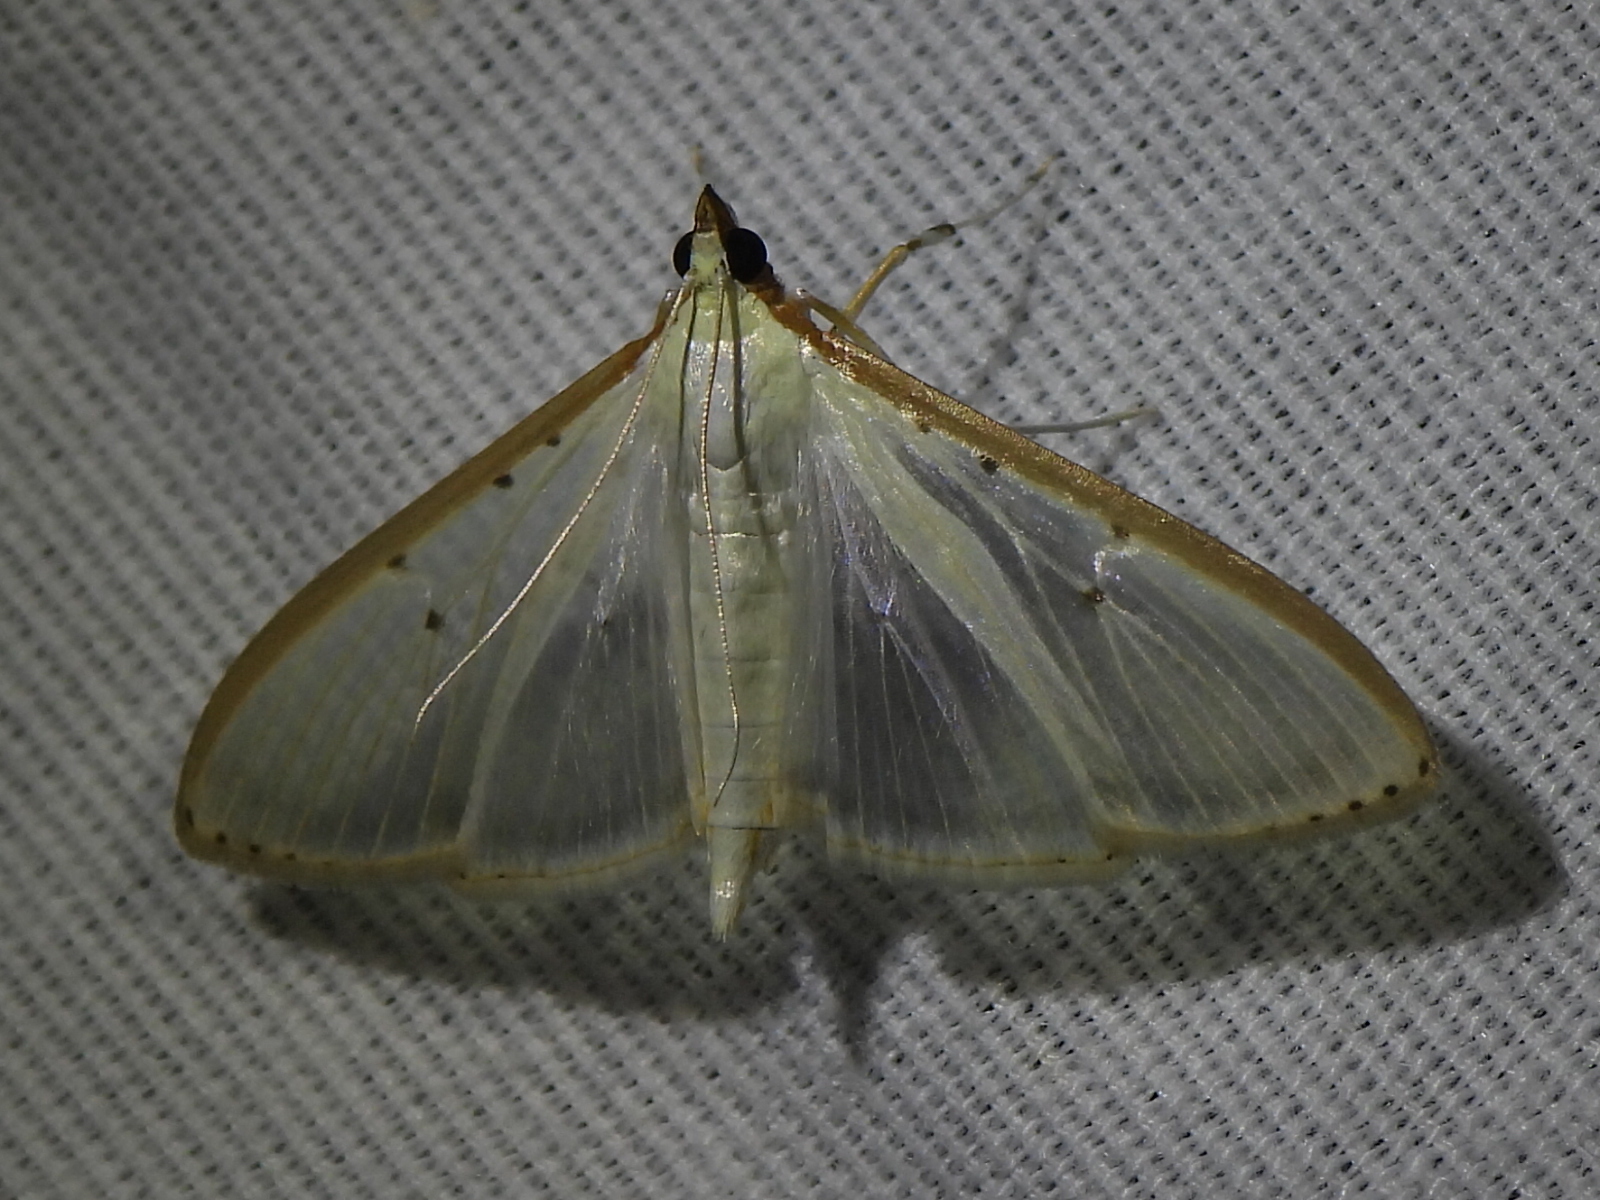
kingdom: Animalia
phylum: Arthropoda
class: Insecta
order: Lepidoptera
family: Crambidae
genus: Palpita
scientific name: Palpita quadristigmalis
